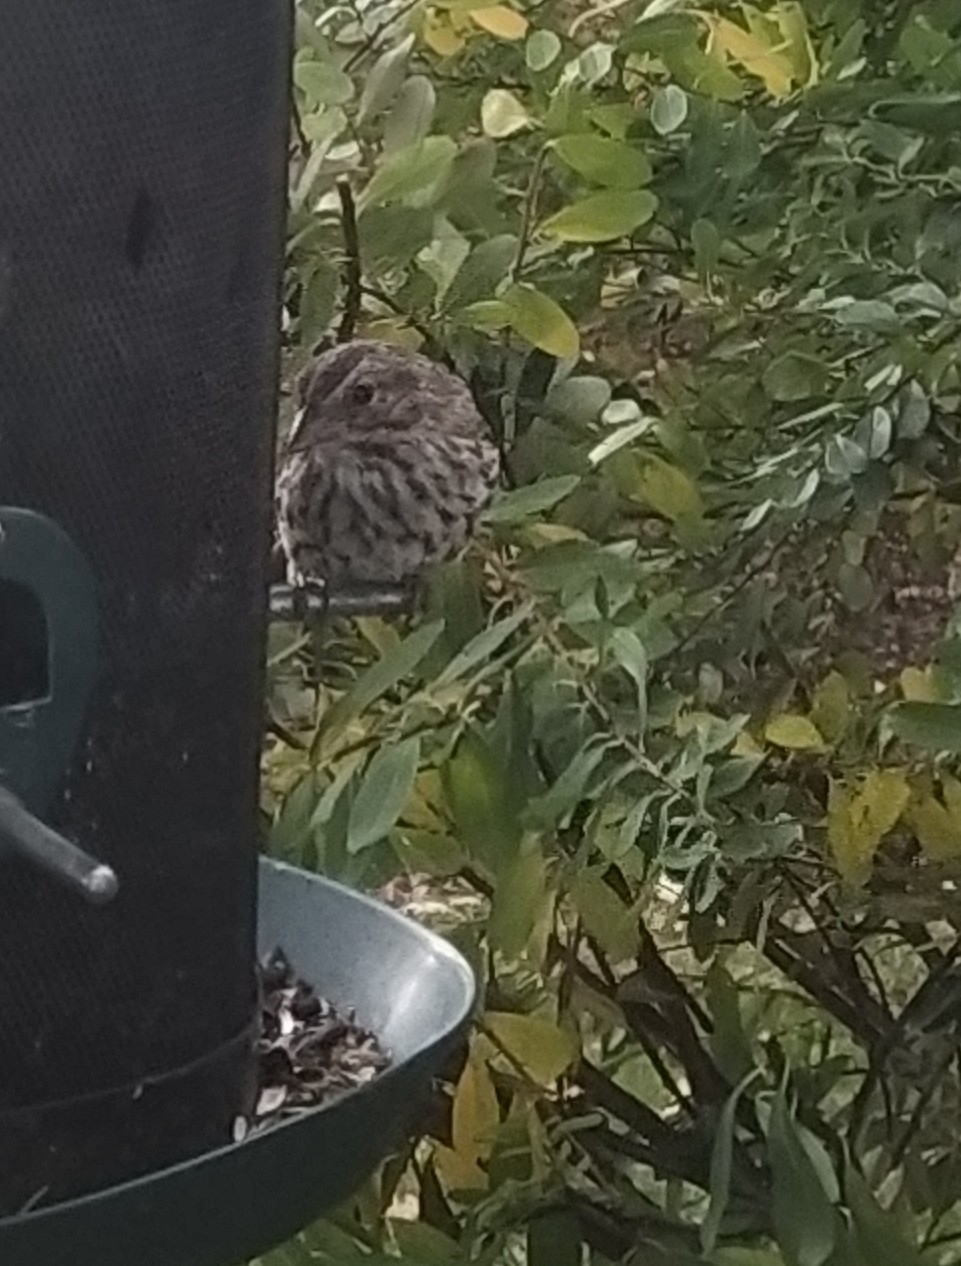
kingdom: Animalia
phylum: Chordata
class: Aves
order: Passeriformes
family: Passerellidae
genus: Melospiza
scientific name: Melospiza melodia
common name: Song sparrow
